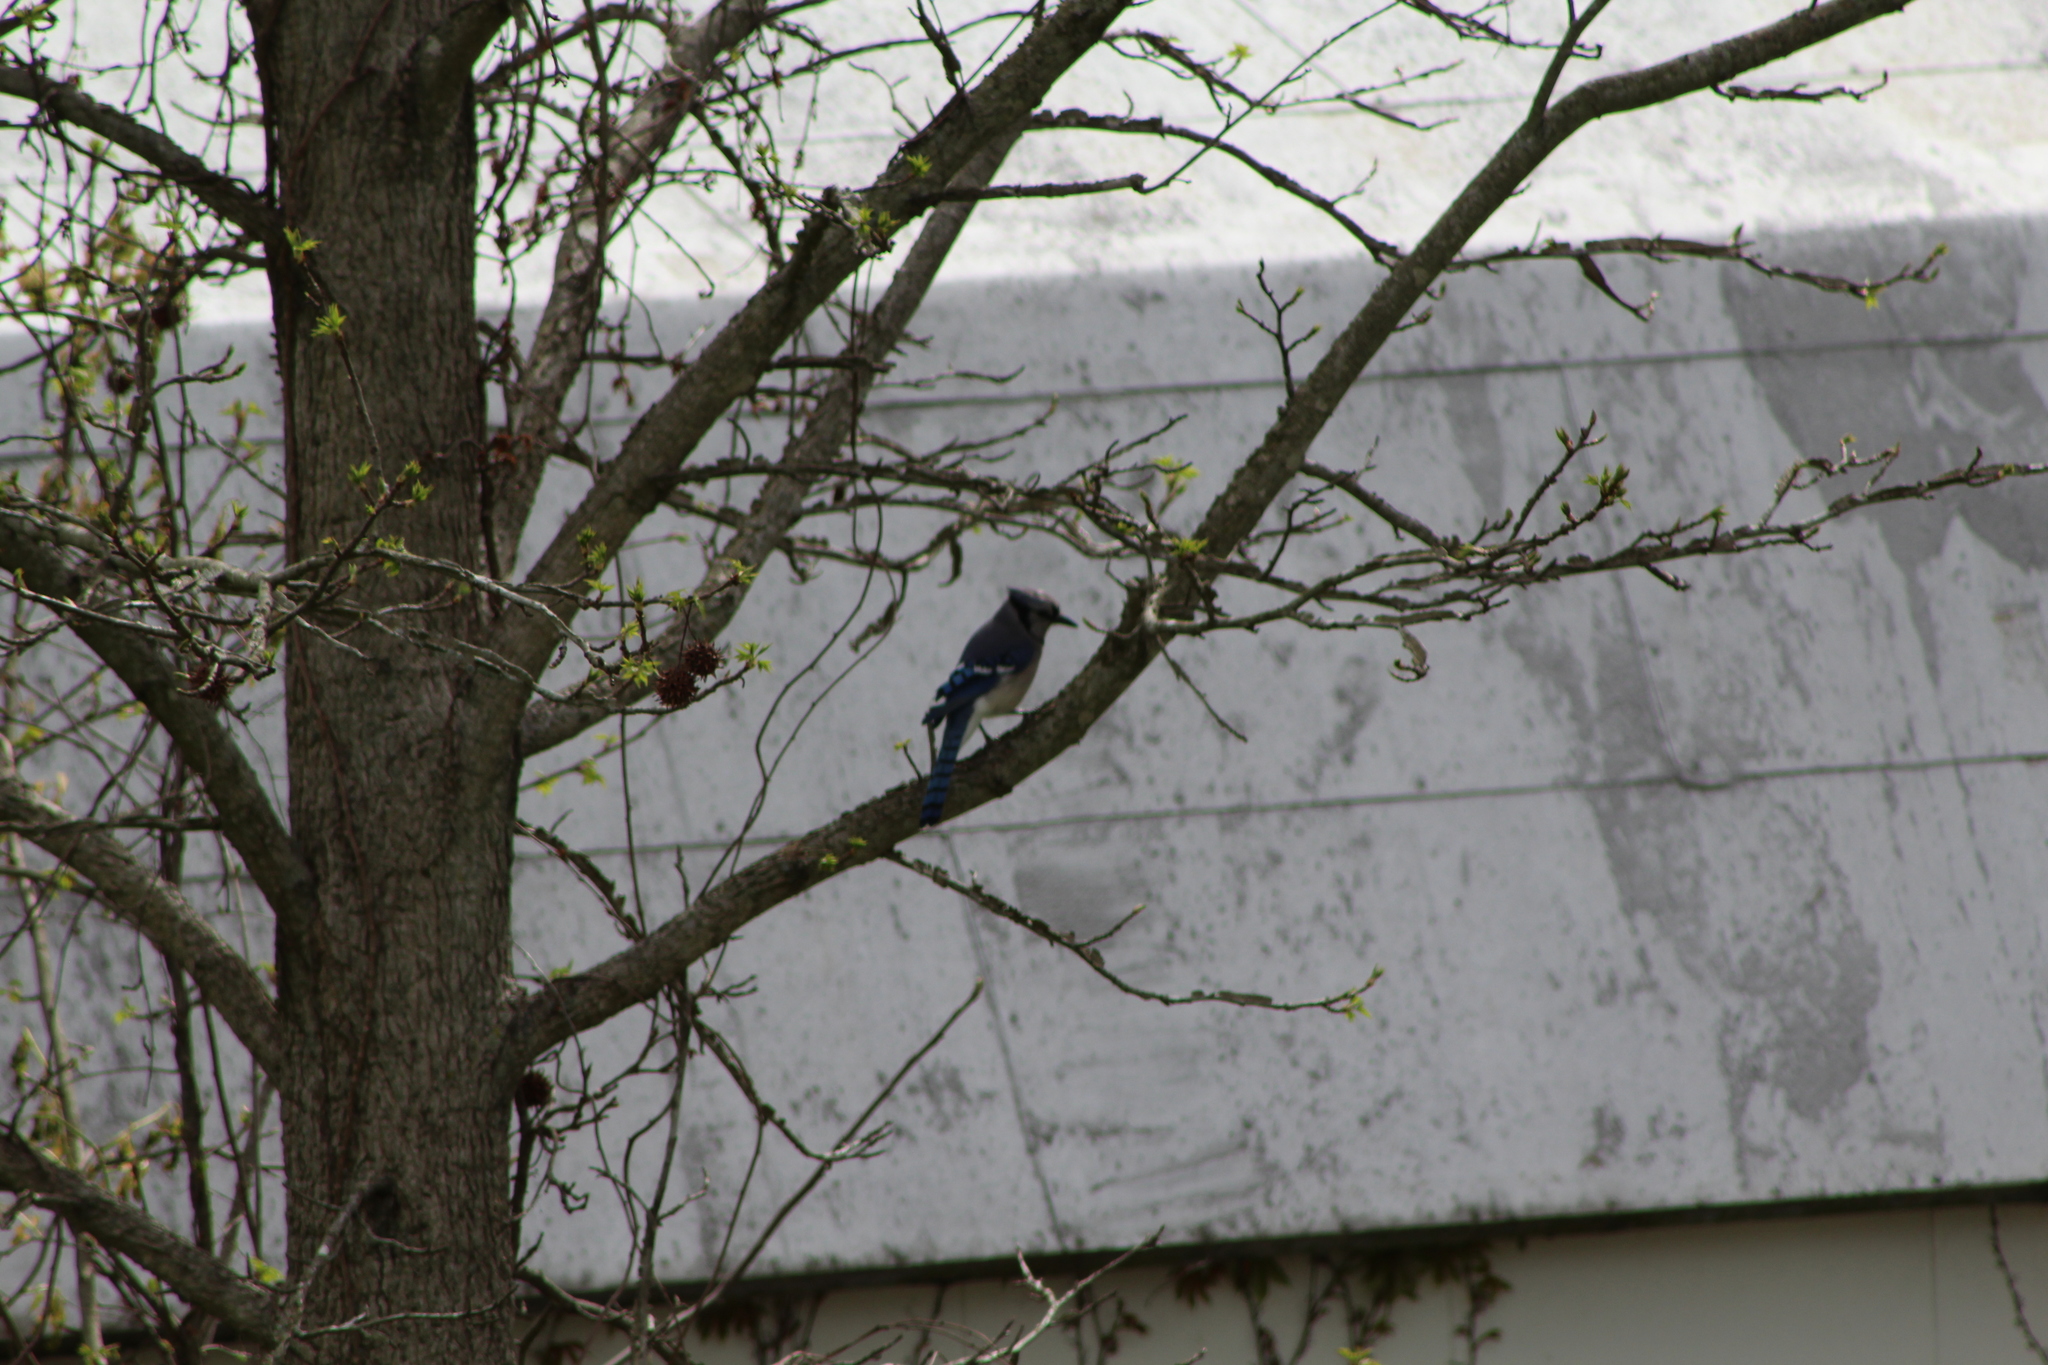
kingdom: Animalia
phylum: Chordata
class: Aves
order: Passeriformes
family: Corvidae
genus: Cyanocitta
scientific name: Cyanocitta cristata
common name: Blue jay
